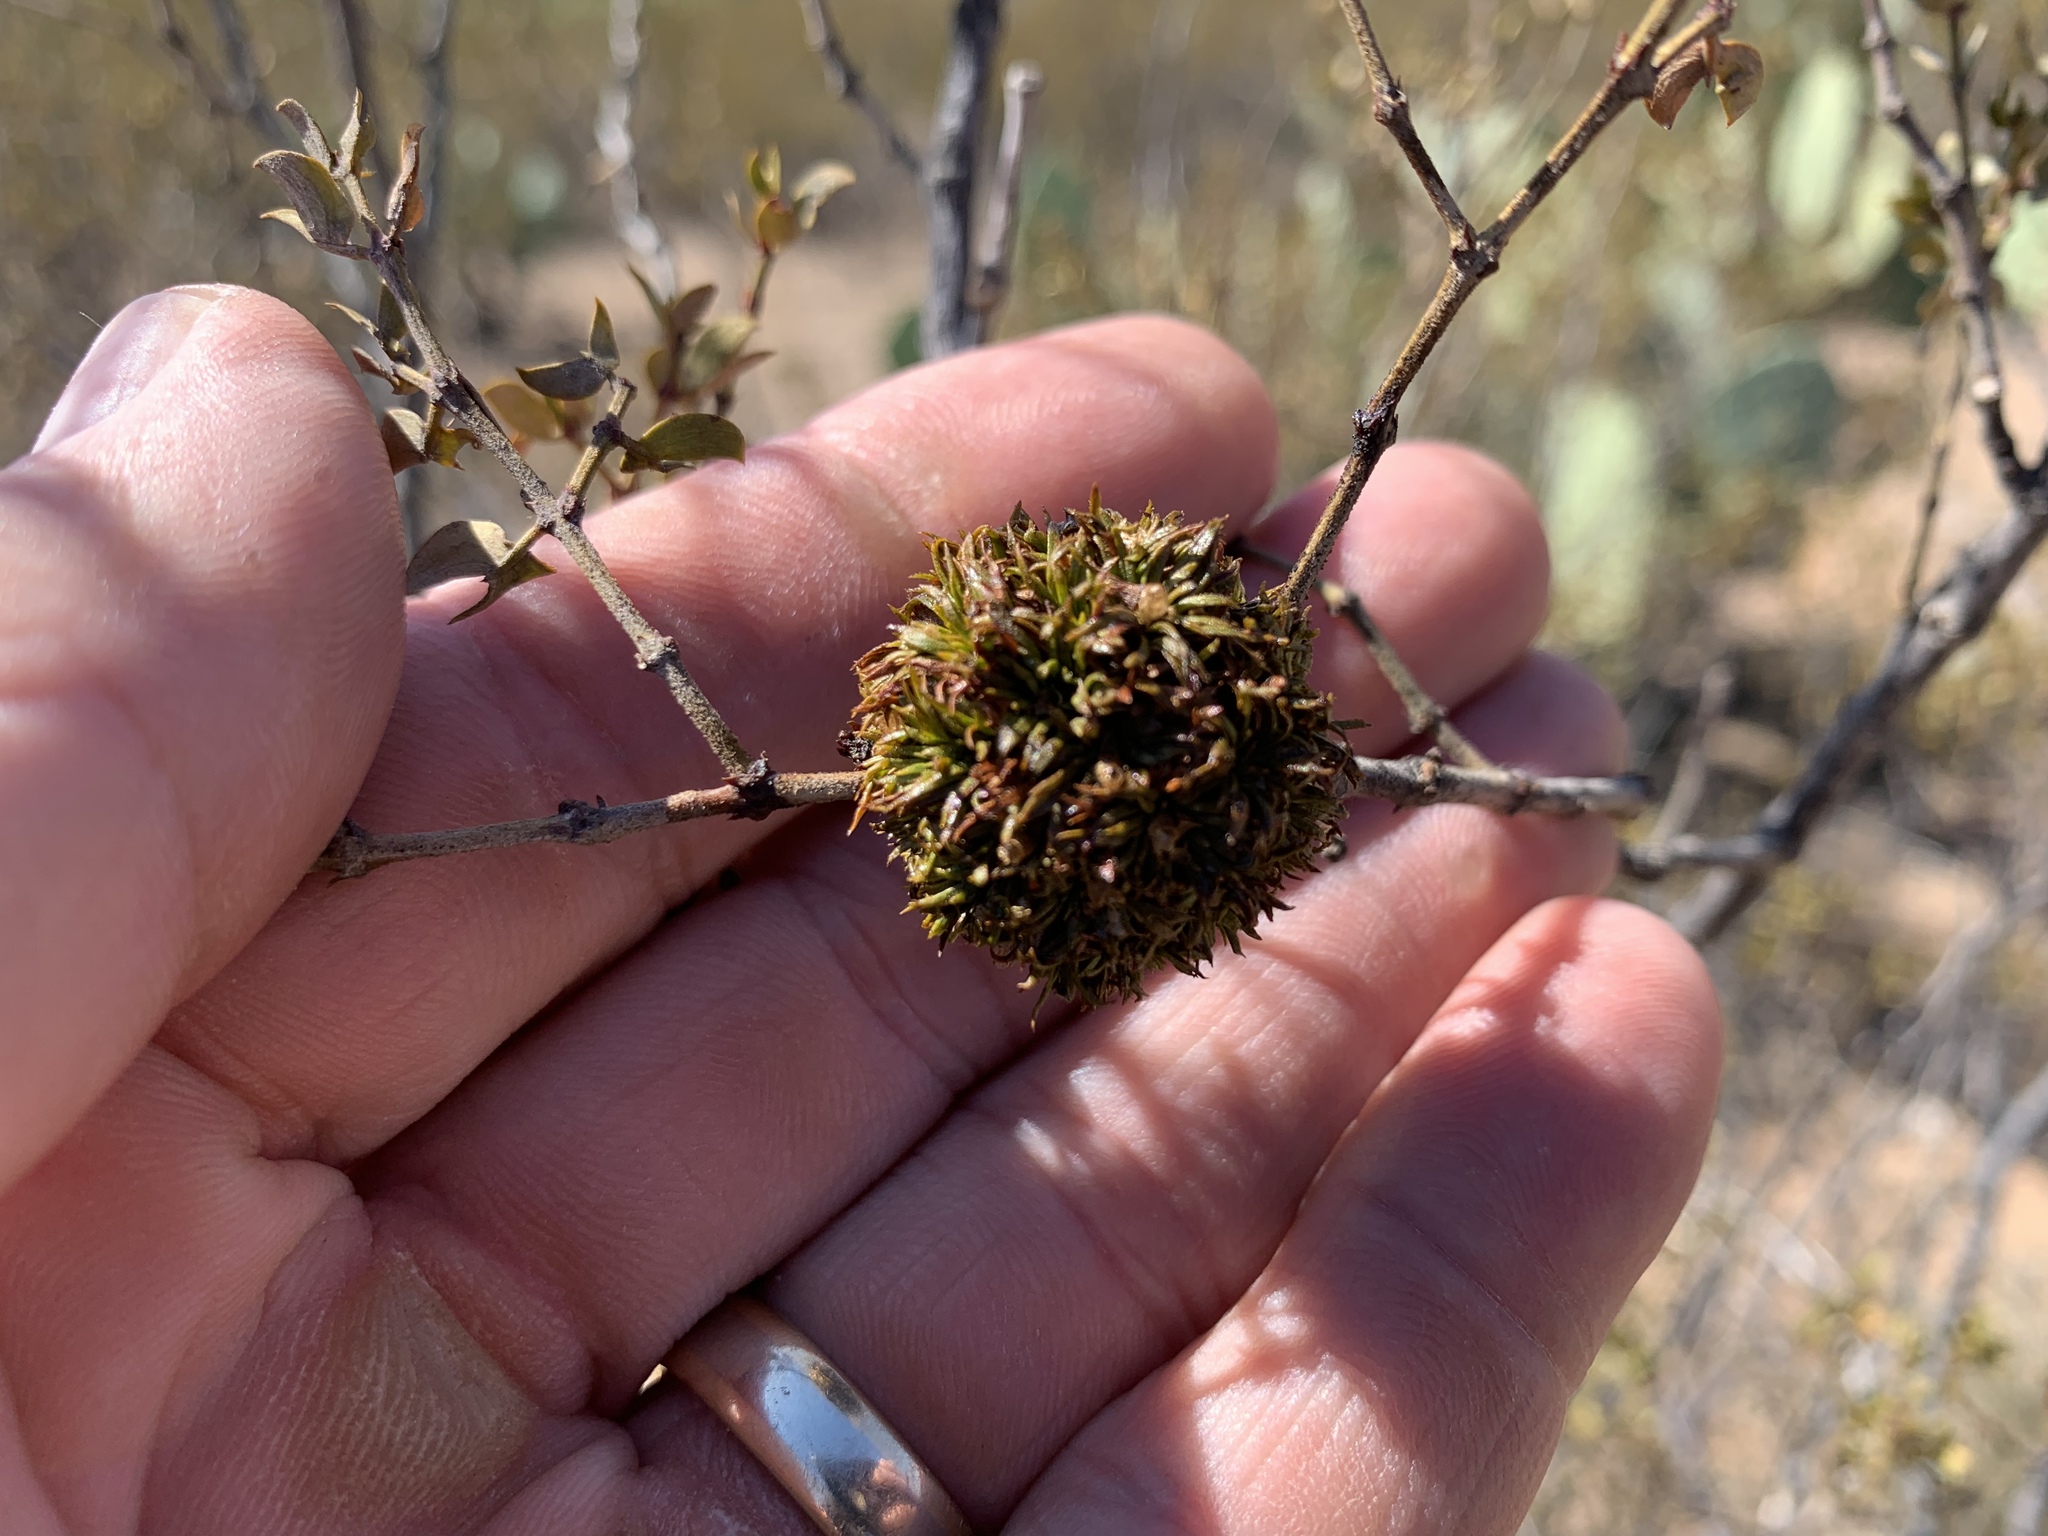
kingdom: Animalia
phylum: Arthropoda
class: Insecta
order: Diptera
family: Cecidomyiidae
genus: Asphondylia
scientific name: Asphondylia auripila
